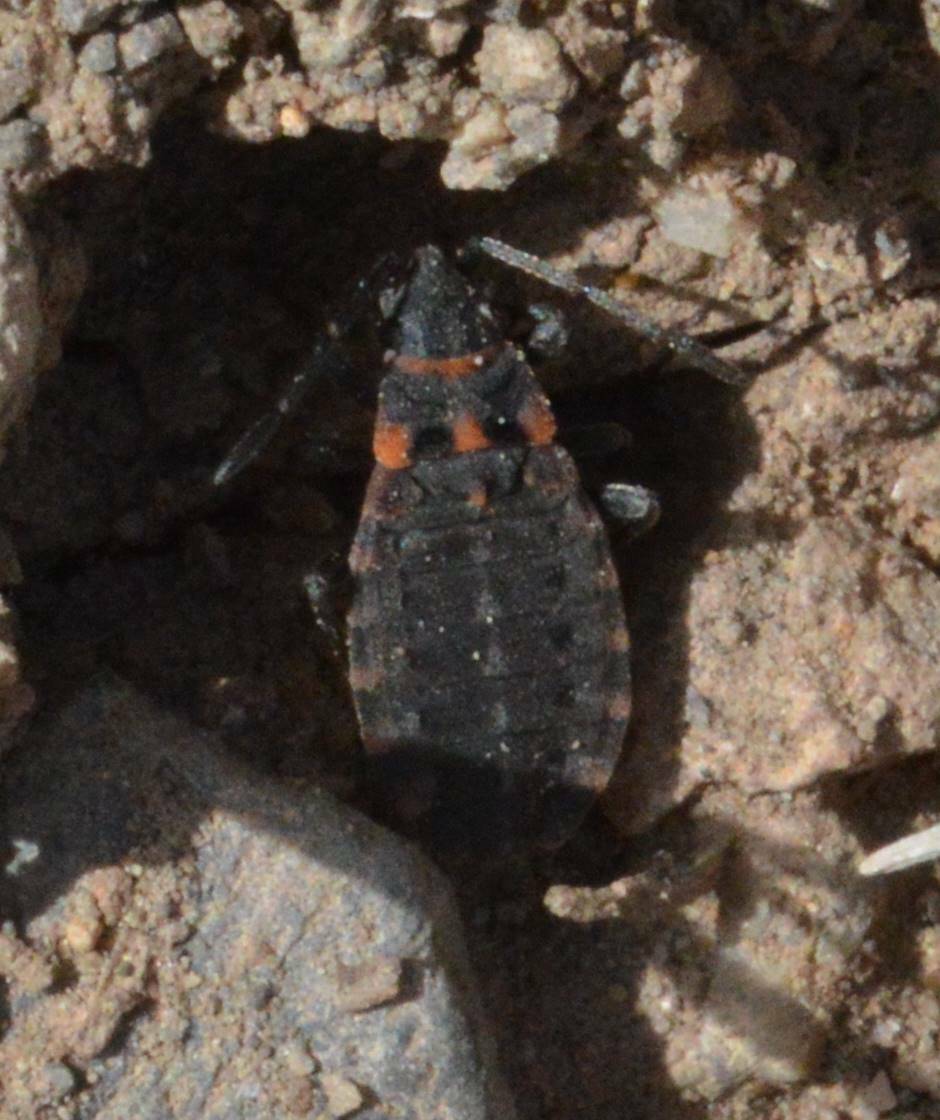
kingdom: Animalia
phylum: Arthropoda
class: Insecta
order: Hemiptera
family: Lygaeidae
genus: Apterola
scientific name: Apterola kunckeli
